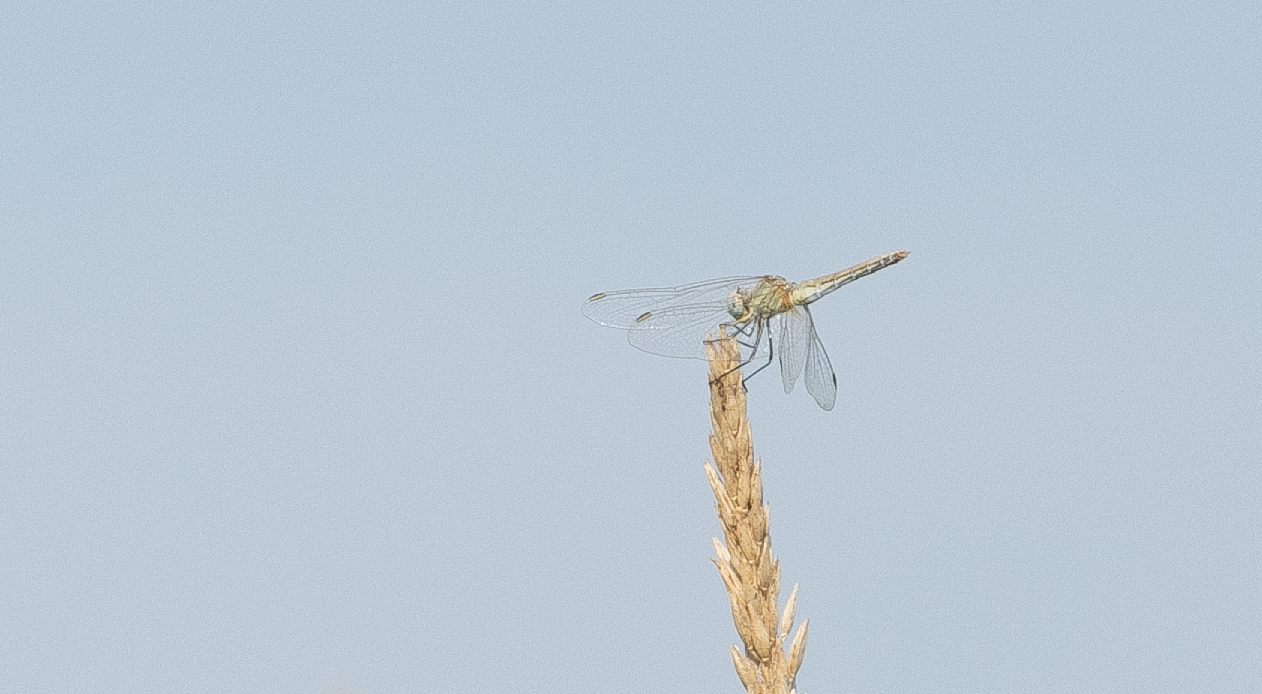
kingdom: Animalia
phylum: Arthropoda
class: Insecta
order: Odonata
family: Libellulidae
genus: Sympetrum
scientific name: Sympetrum striolatum
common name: Common darter
